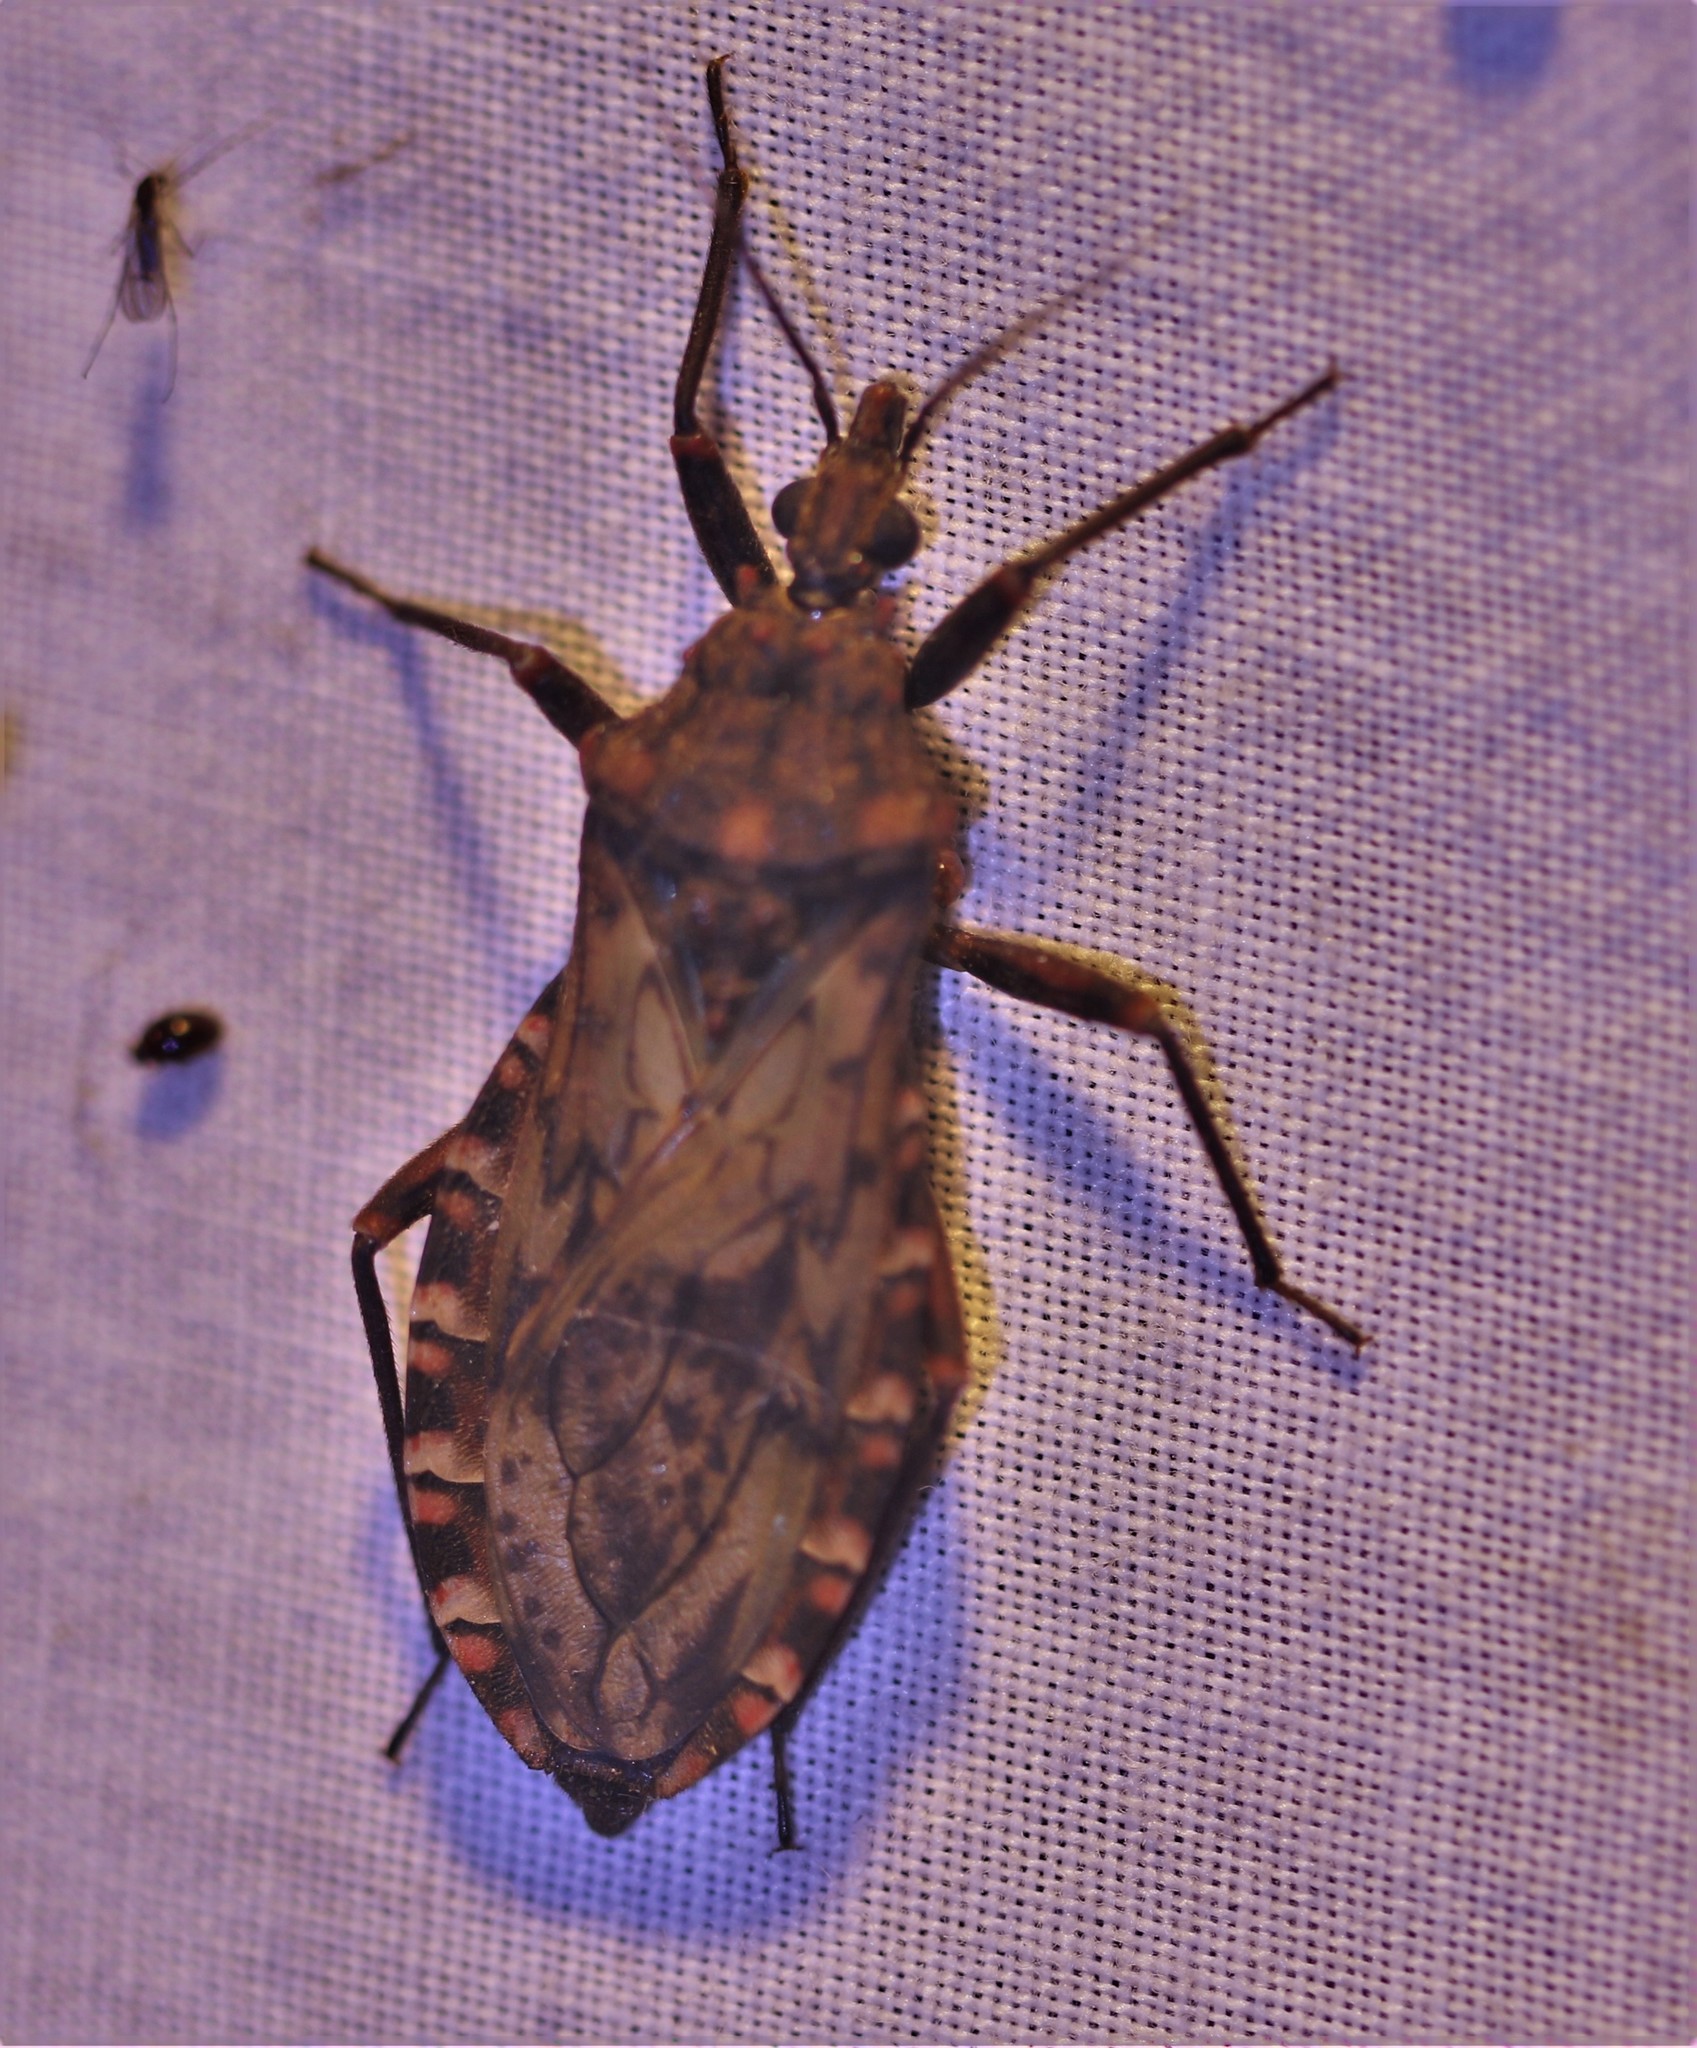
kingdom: Animalia
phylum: Arthropoda
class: Insecta
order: Hemiptera
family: Reduviidae
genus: Panstrongylus
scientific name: Panstrongylus rufotuberculatus
